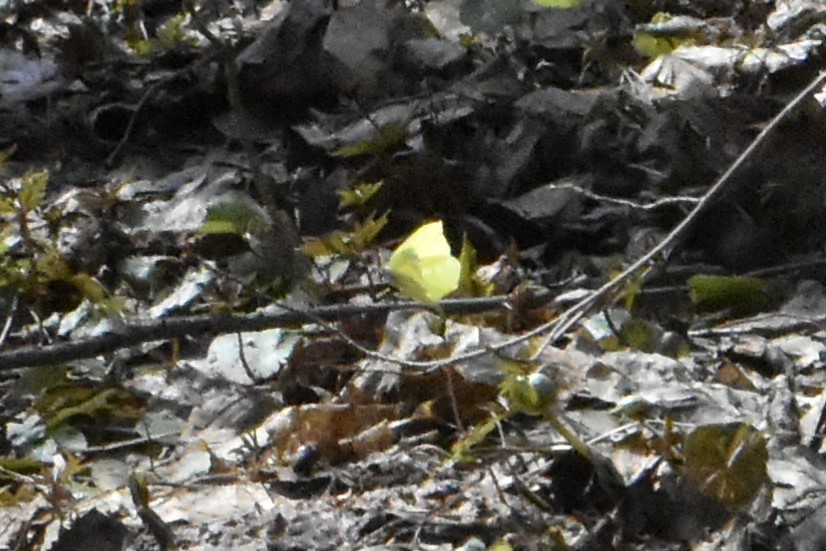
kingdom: Animalia
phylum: Arthropoda
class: Insecta
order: Lepidoptera
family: Pieridae
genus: Gonepteryx
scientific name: Gonepteryx rhamni
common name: Brimstone
